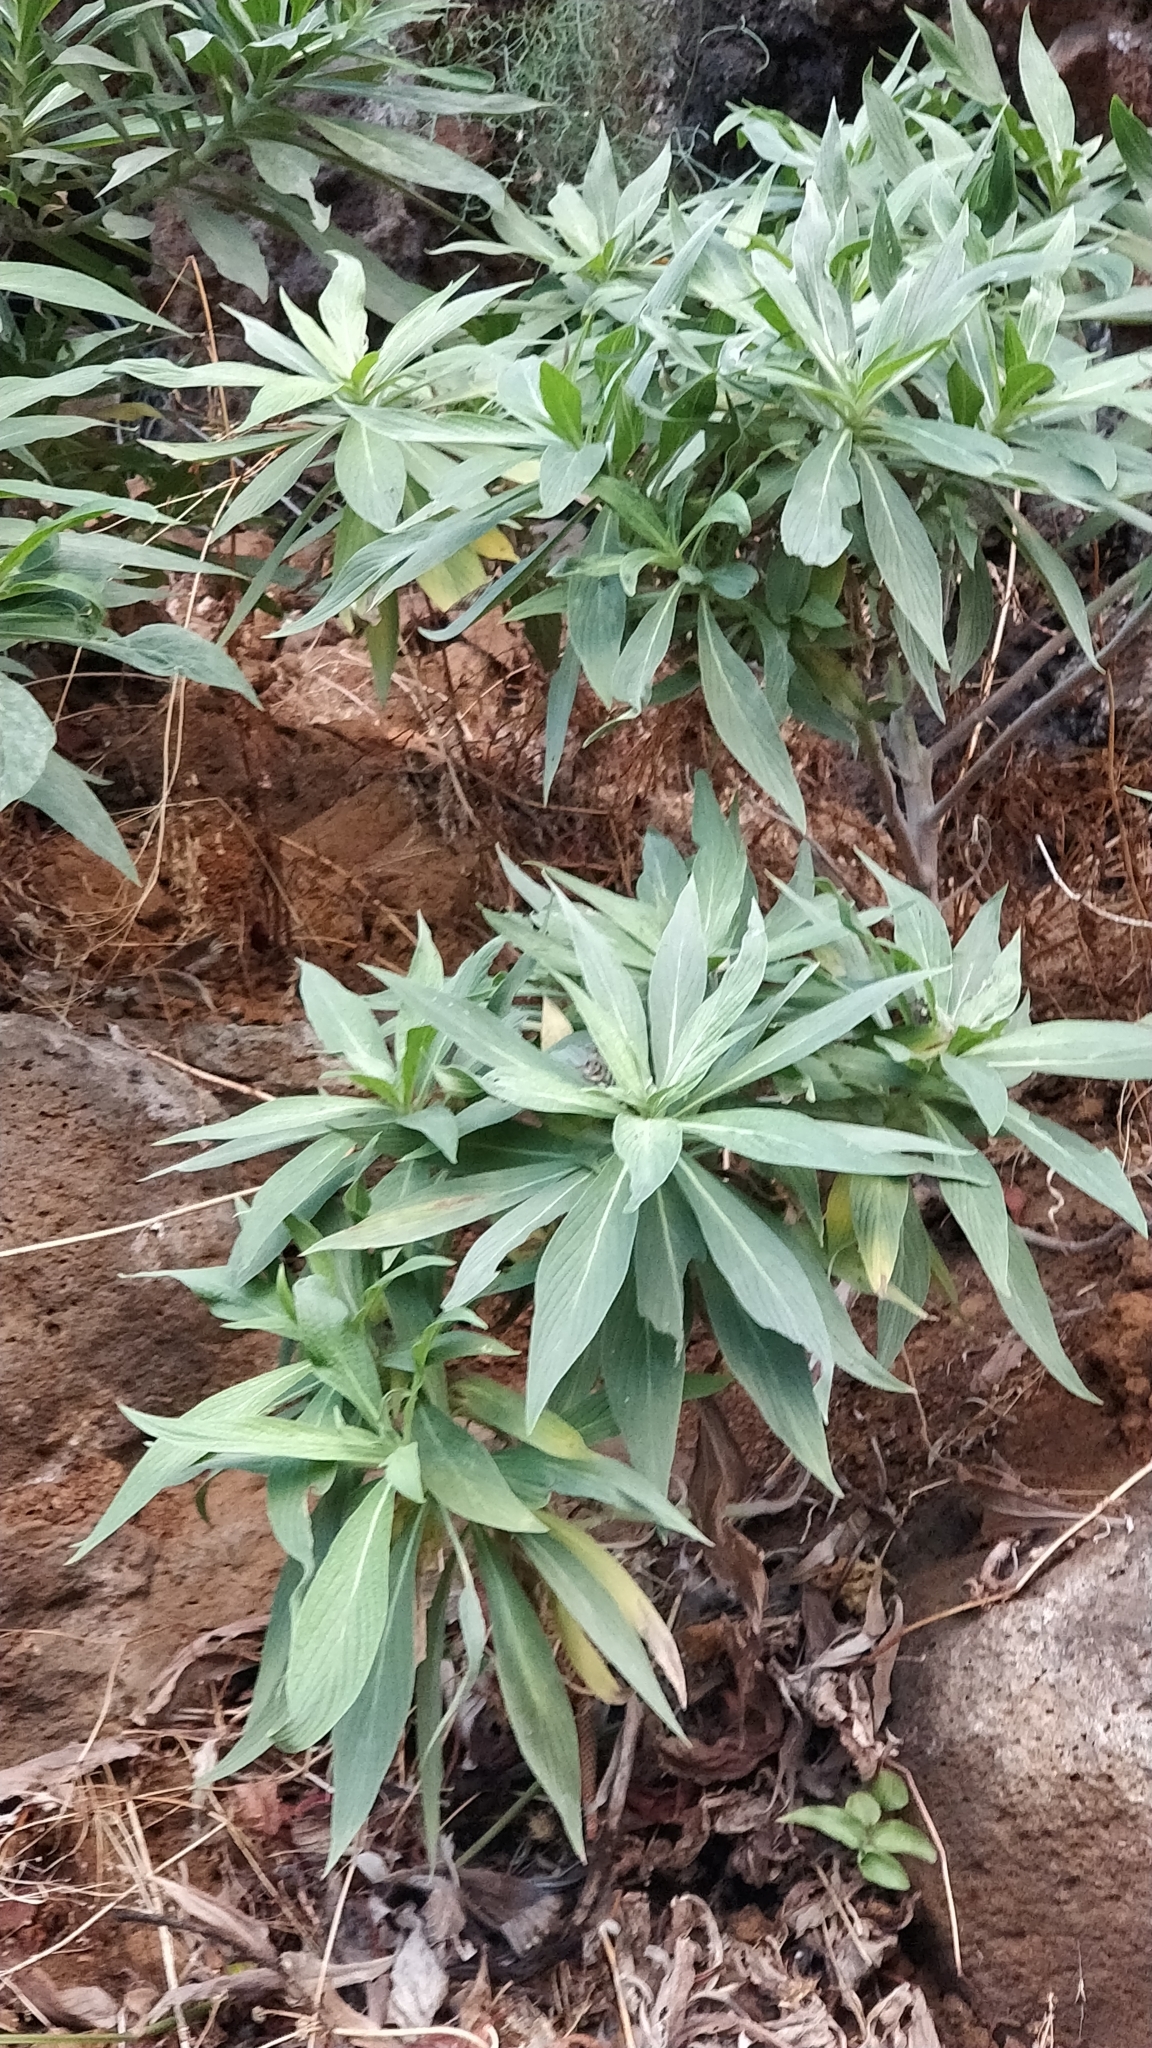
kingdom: Plantae
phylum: Tracheophyta
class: Magnoliopsida
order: Boraginales
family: Boraginaceae
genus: Echium
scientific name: Echium nervosum
